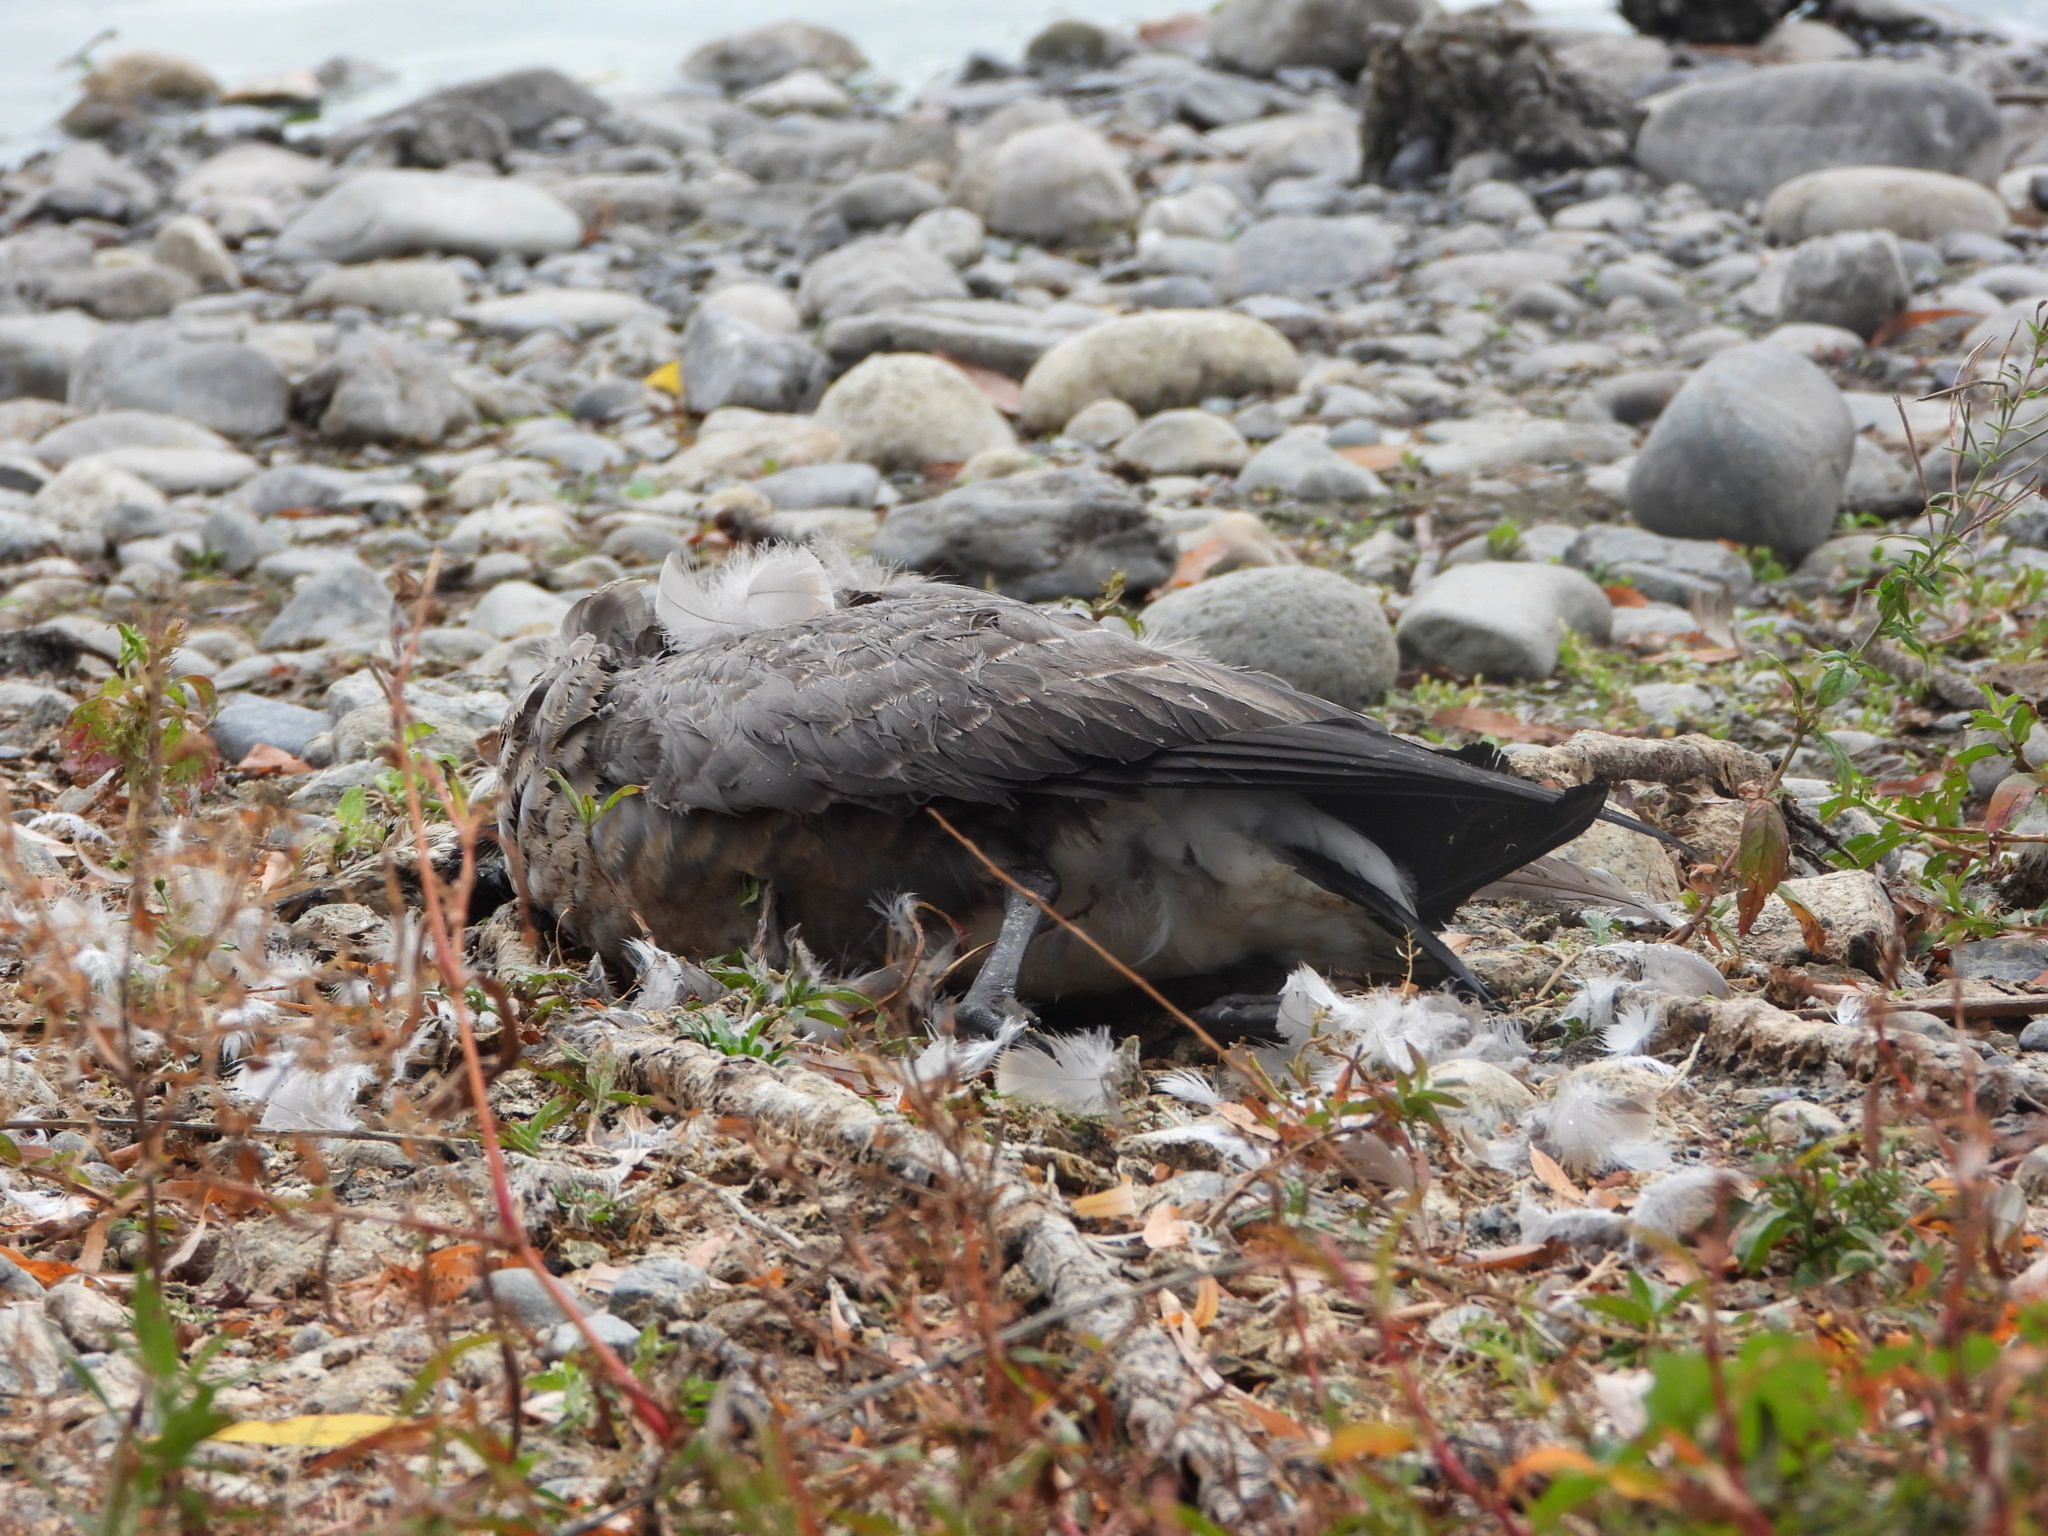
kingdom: Animalia
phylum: Chordata
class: Aves
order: Anseriformes
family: Anatidae
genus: Branta
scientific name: Branta hutchinsii
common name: Cackling goose
